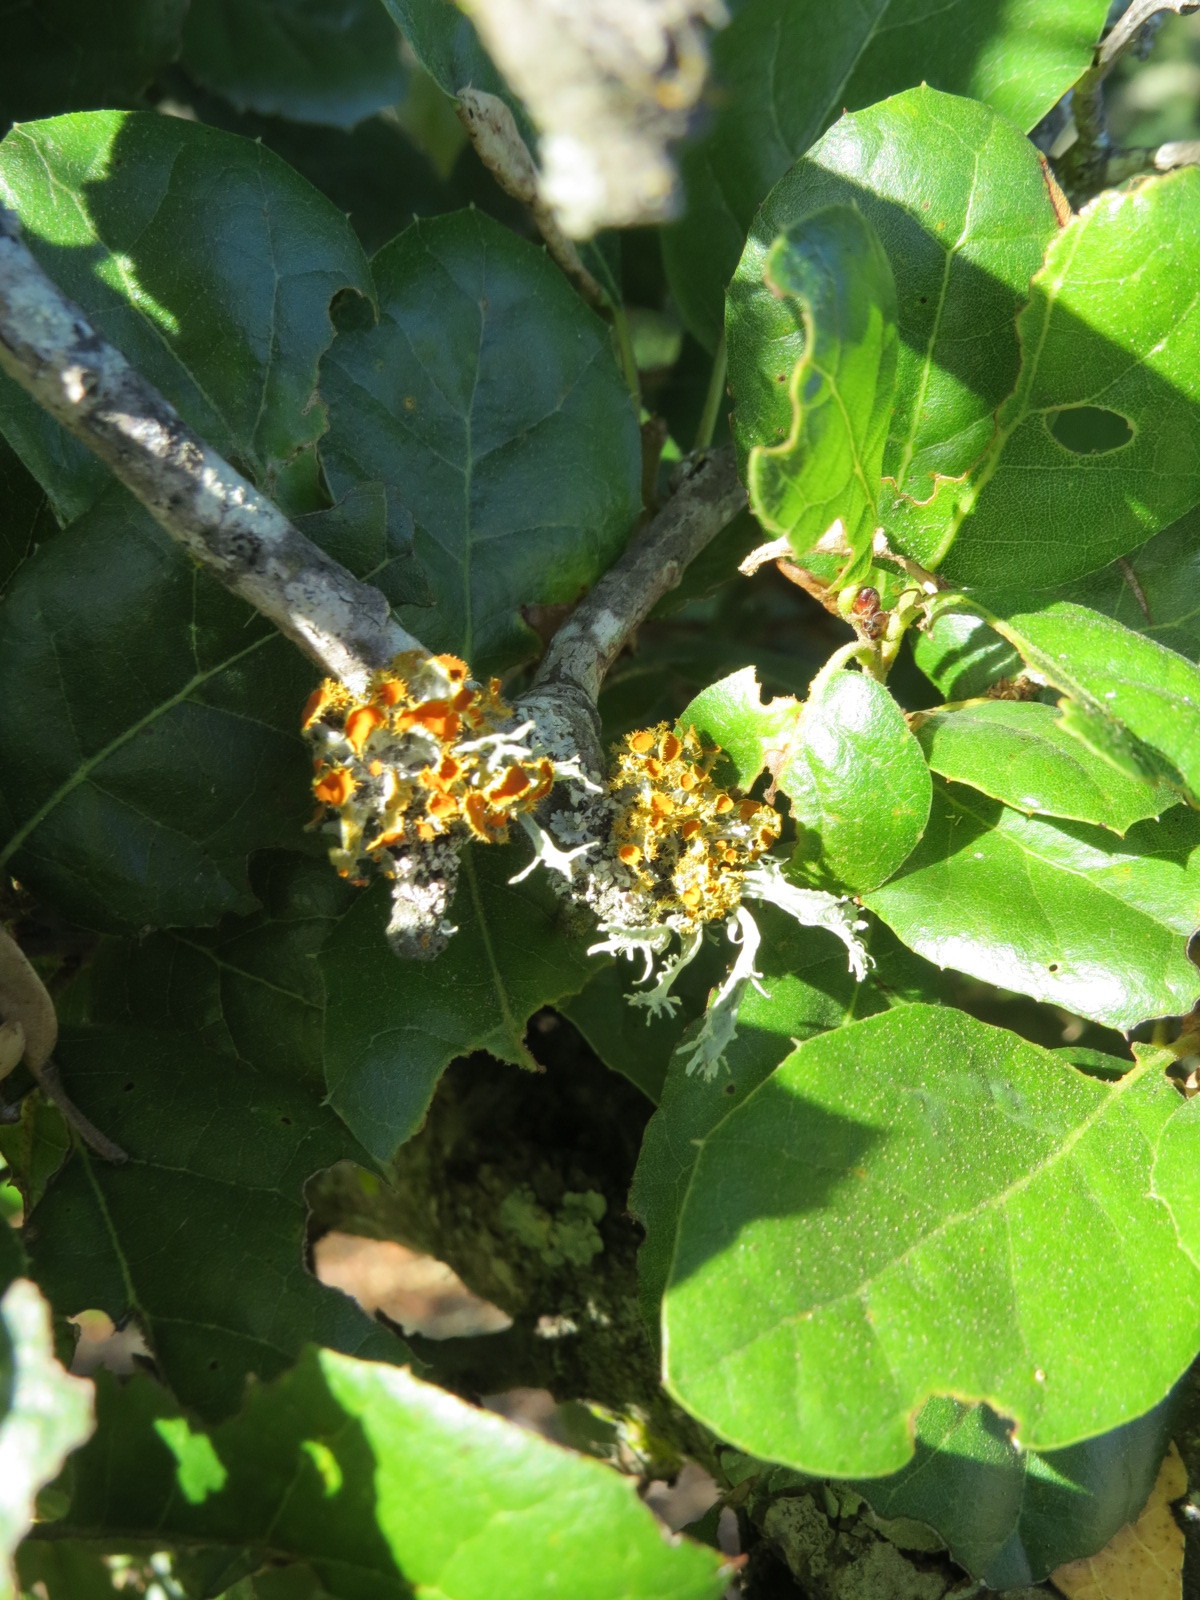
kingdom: Fungi
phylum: Ascomycota
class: Lecanoromycetes
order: Teloschistales
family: Teloschistaceae
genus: Niorma
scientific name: Niorma chrysophthalma
